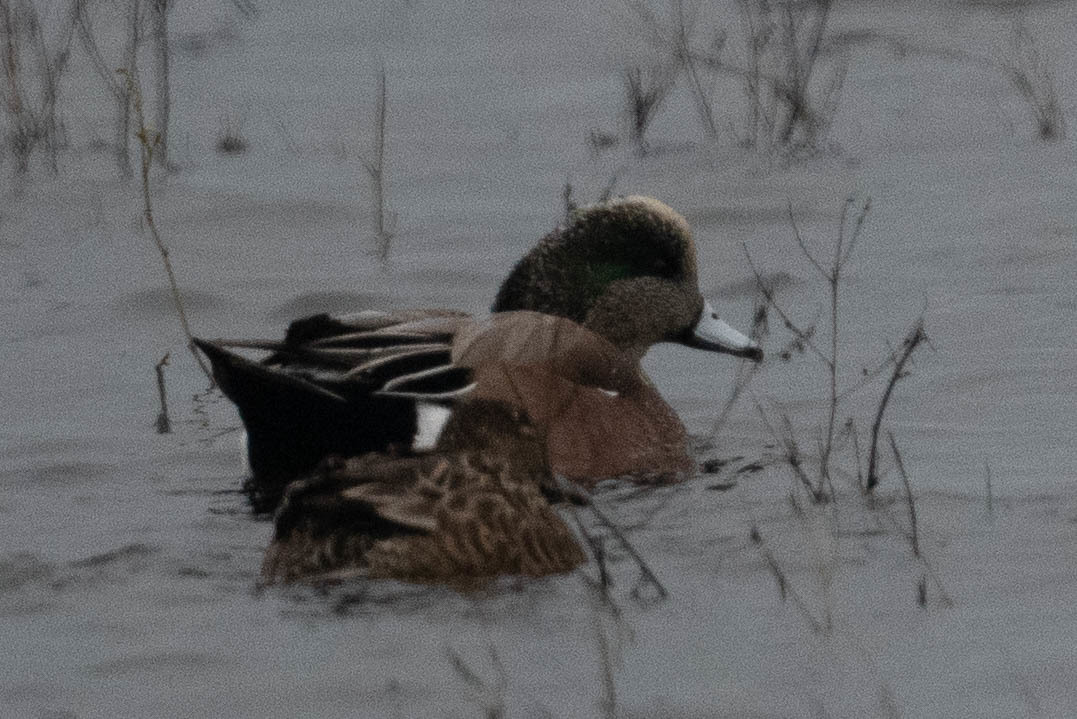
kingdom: Animalia
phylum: Chordata
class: Aves
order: Anseriformes
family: Anatidae
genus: Mareca
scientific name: Mareca americana
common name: American wigeon
